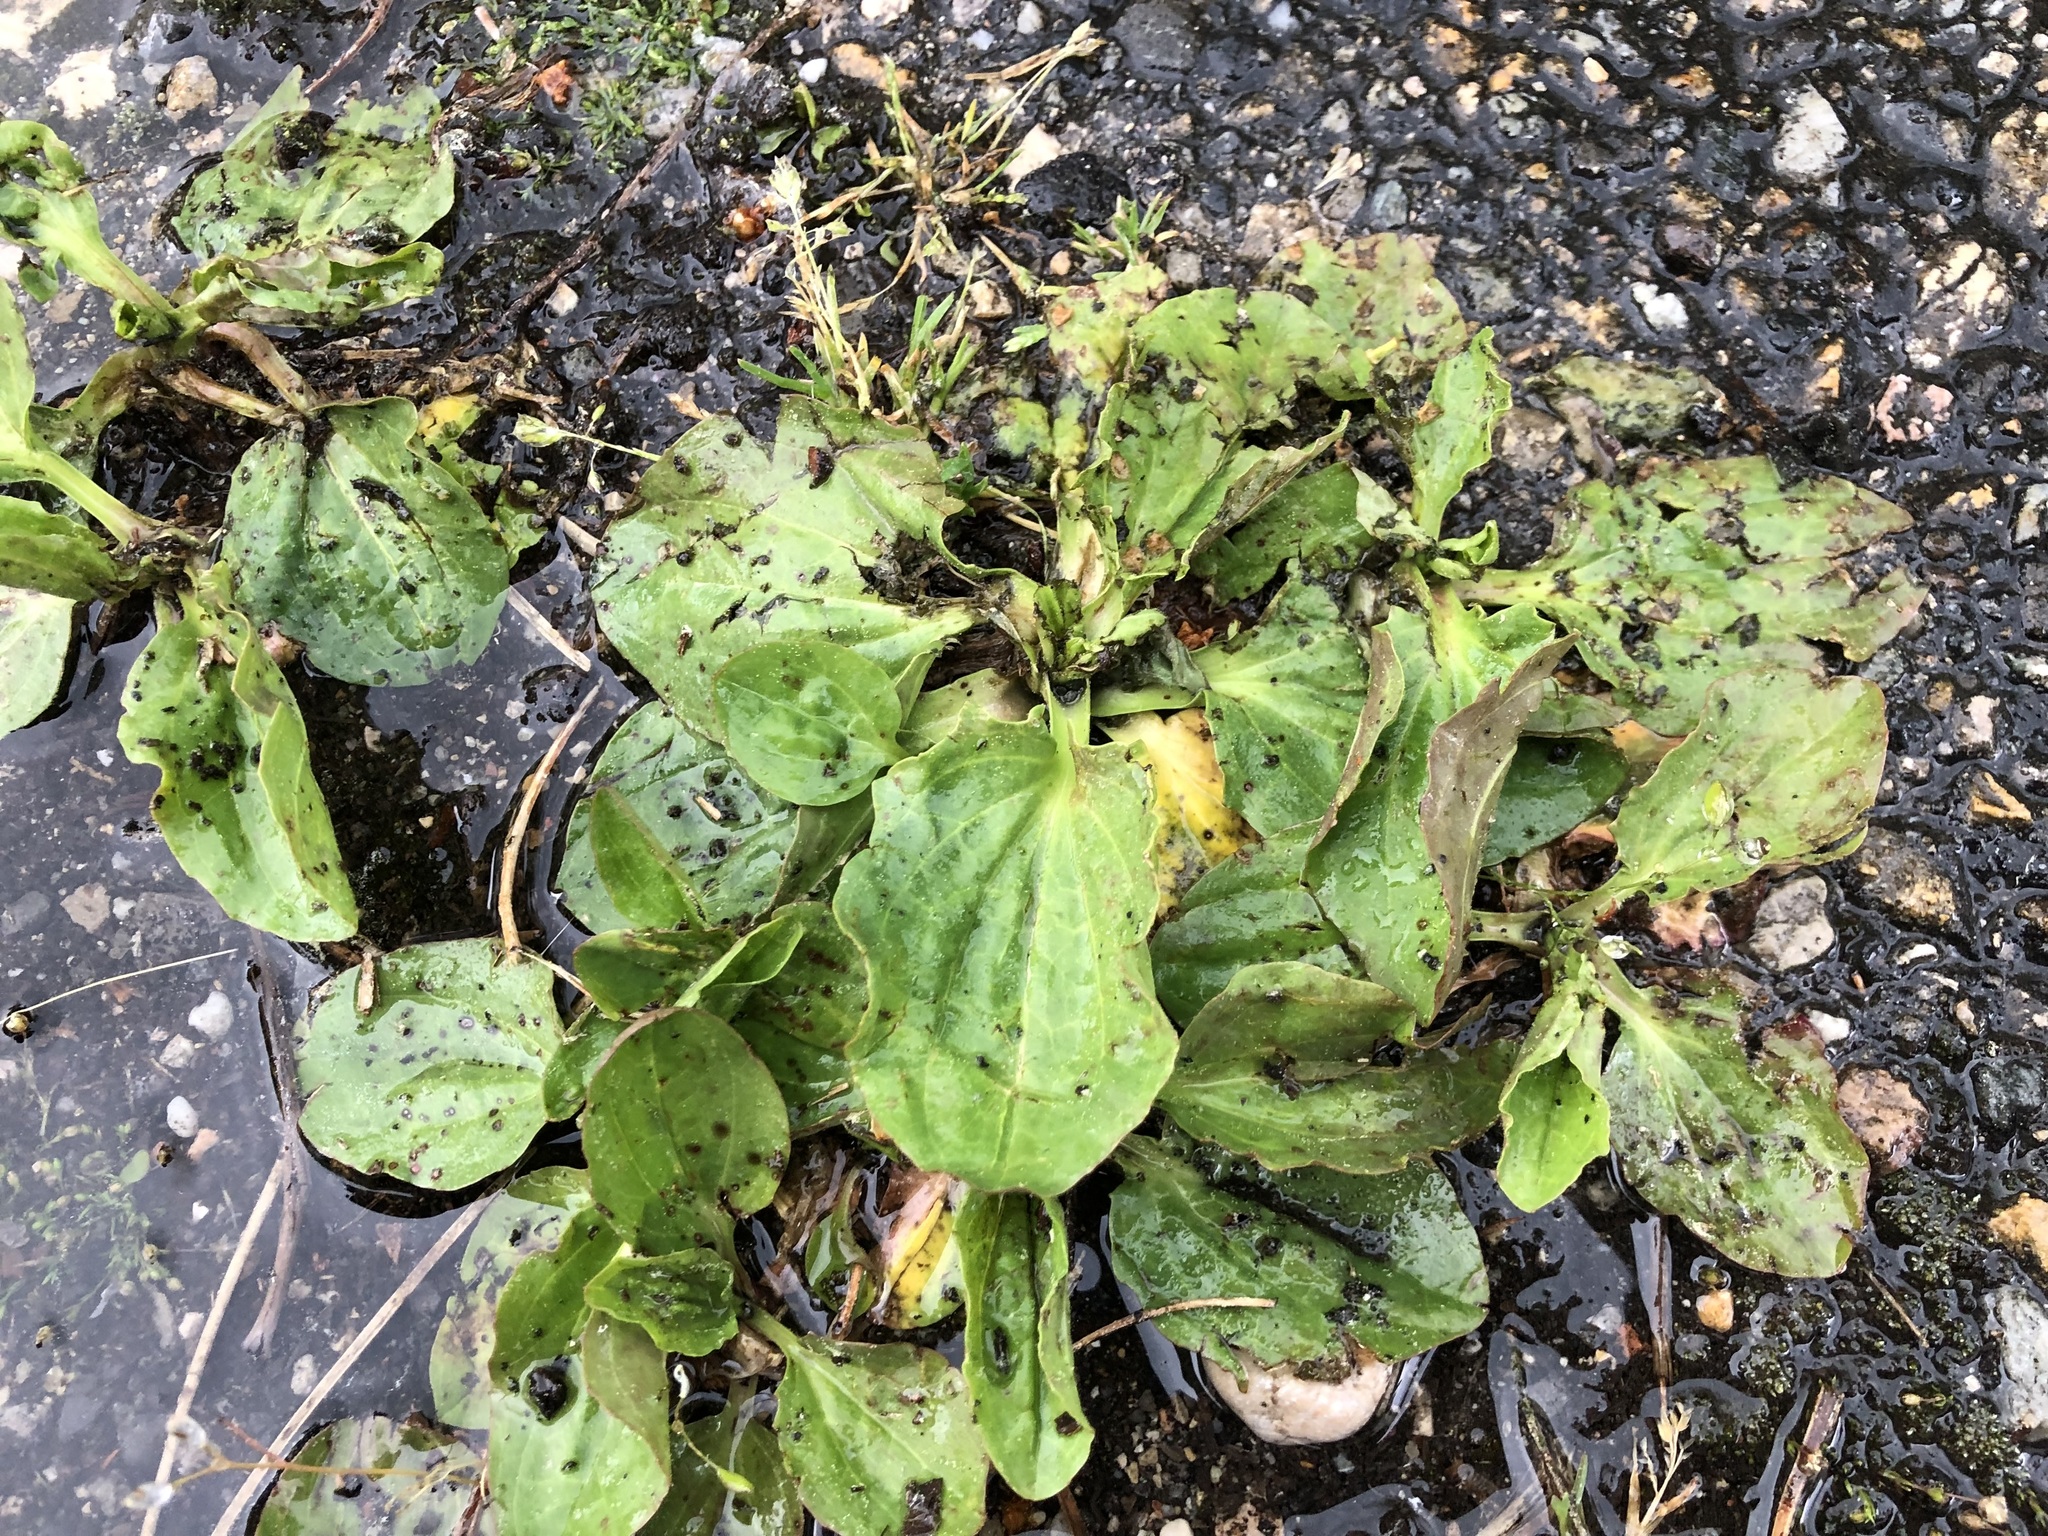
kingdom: Plantae
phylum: Tracheophyta
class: Magnoliopsida
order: Lamiales
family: Plantaginaceae
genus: Plantago
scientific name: Plantago major
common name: Common plantain
